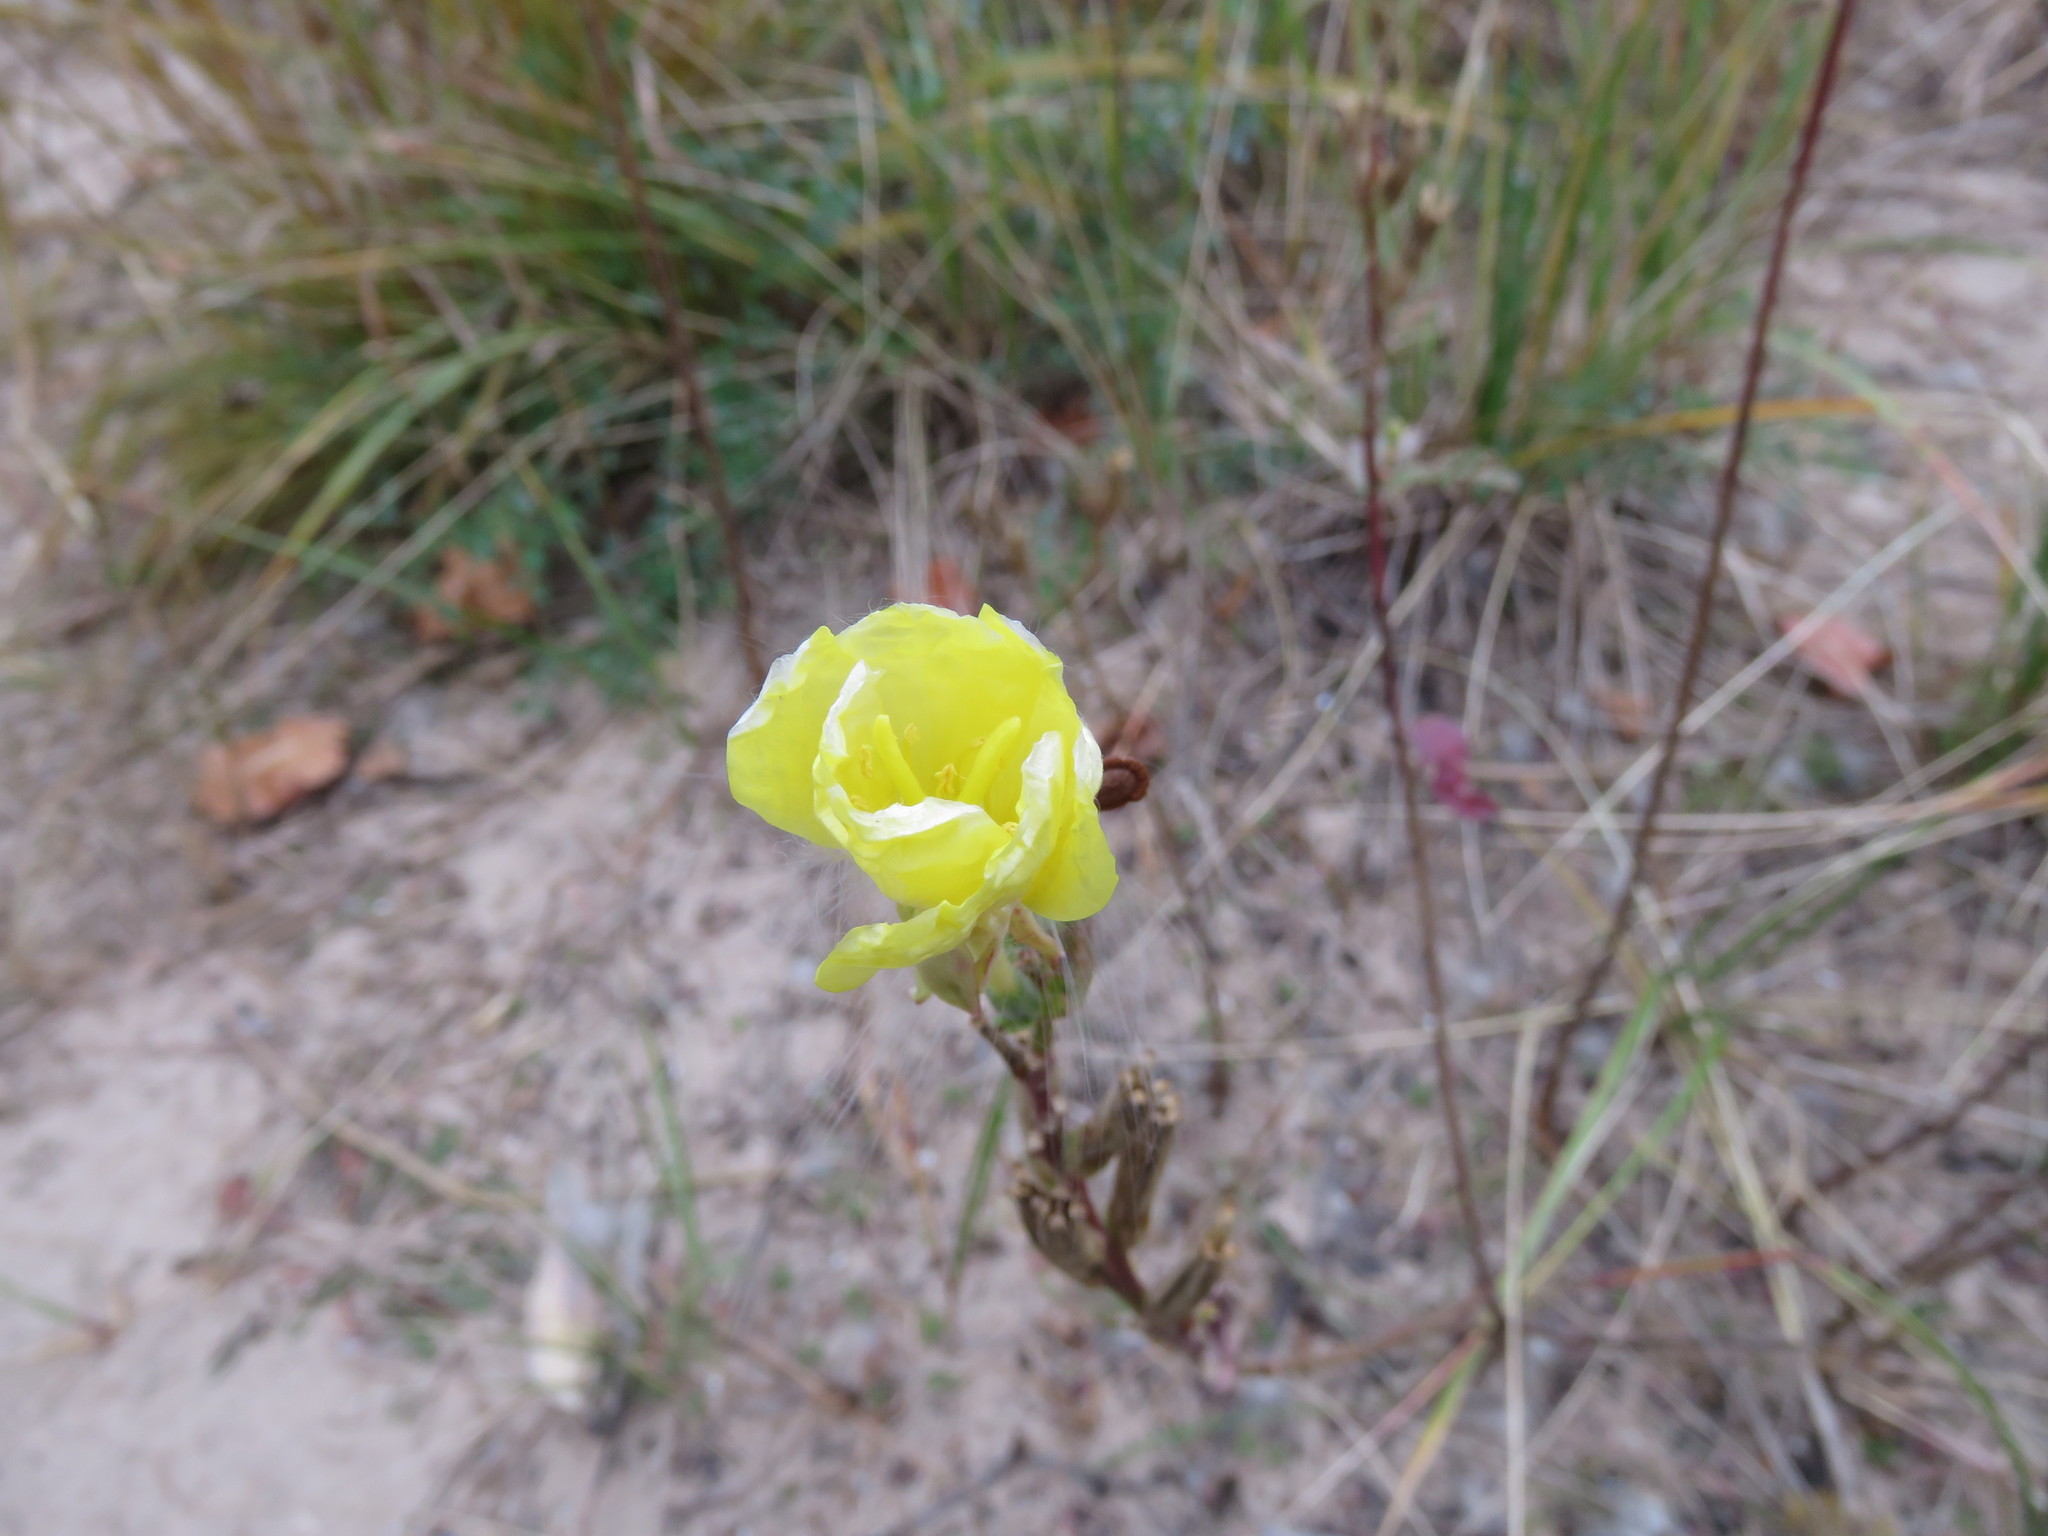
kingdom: Plantae
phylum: Tracheophyta
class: Magnoliopsida
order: Myrtales
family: Onagraceae
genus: Oenothera
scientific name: Oenothera biennis
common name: Common evening-primrose
